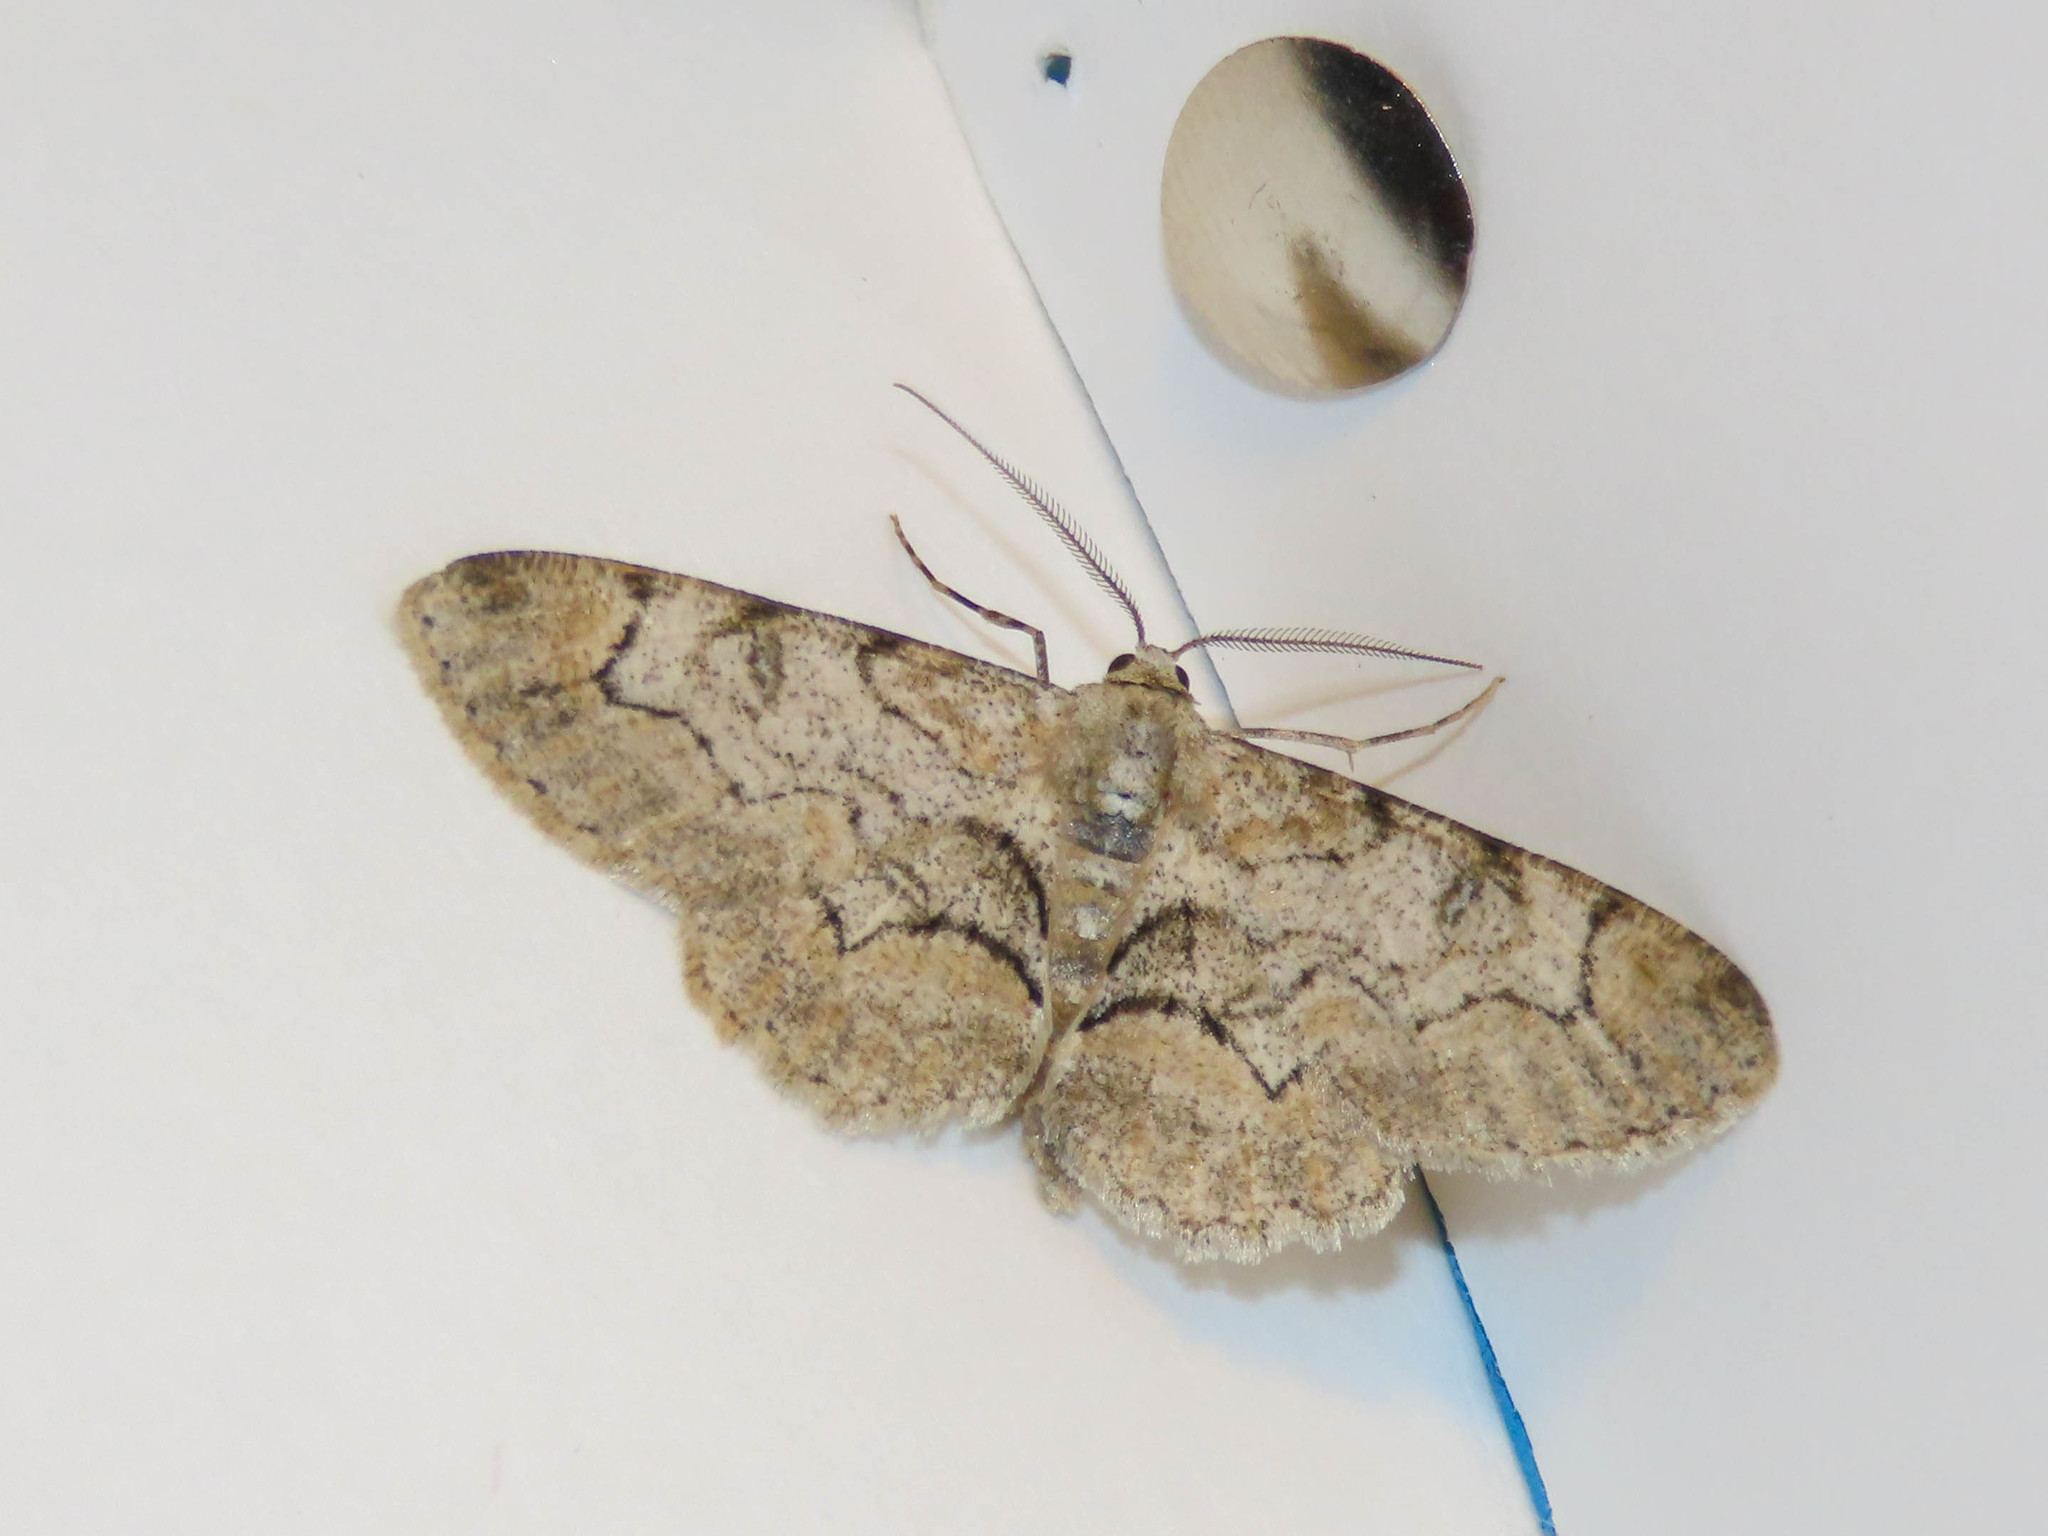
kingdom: Animalia
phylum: Arthropoda
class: Insecta
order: Lepidoptera
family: Geometridae
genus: Iridopsis
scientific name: Iridopsis larvaria
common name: Bent-line gray
